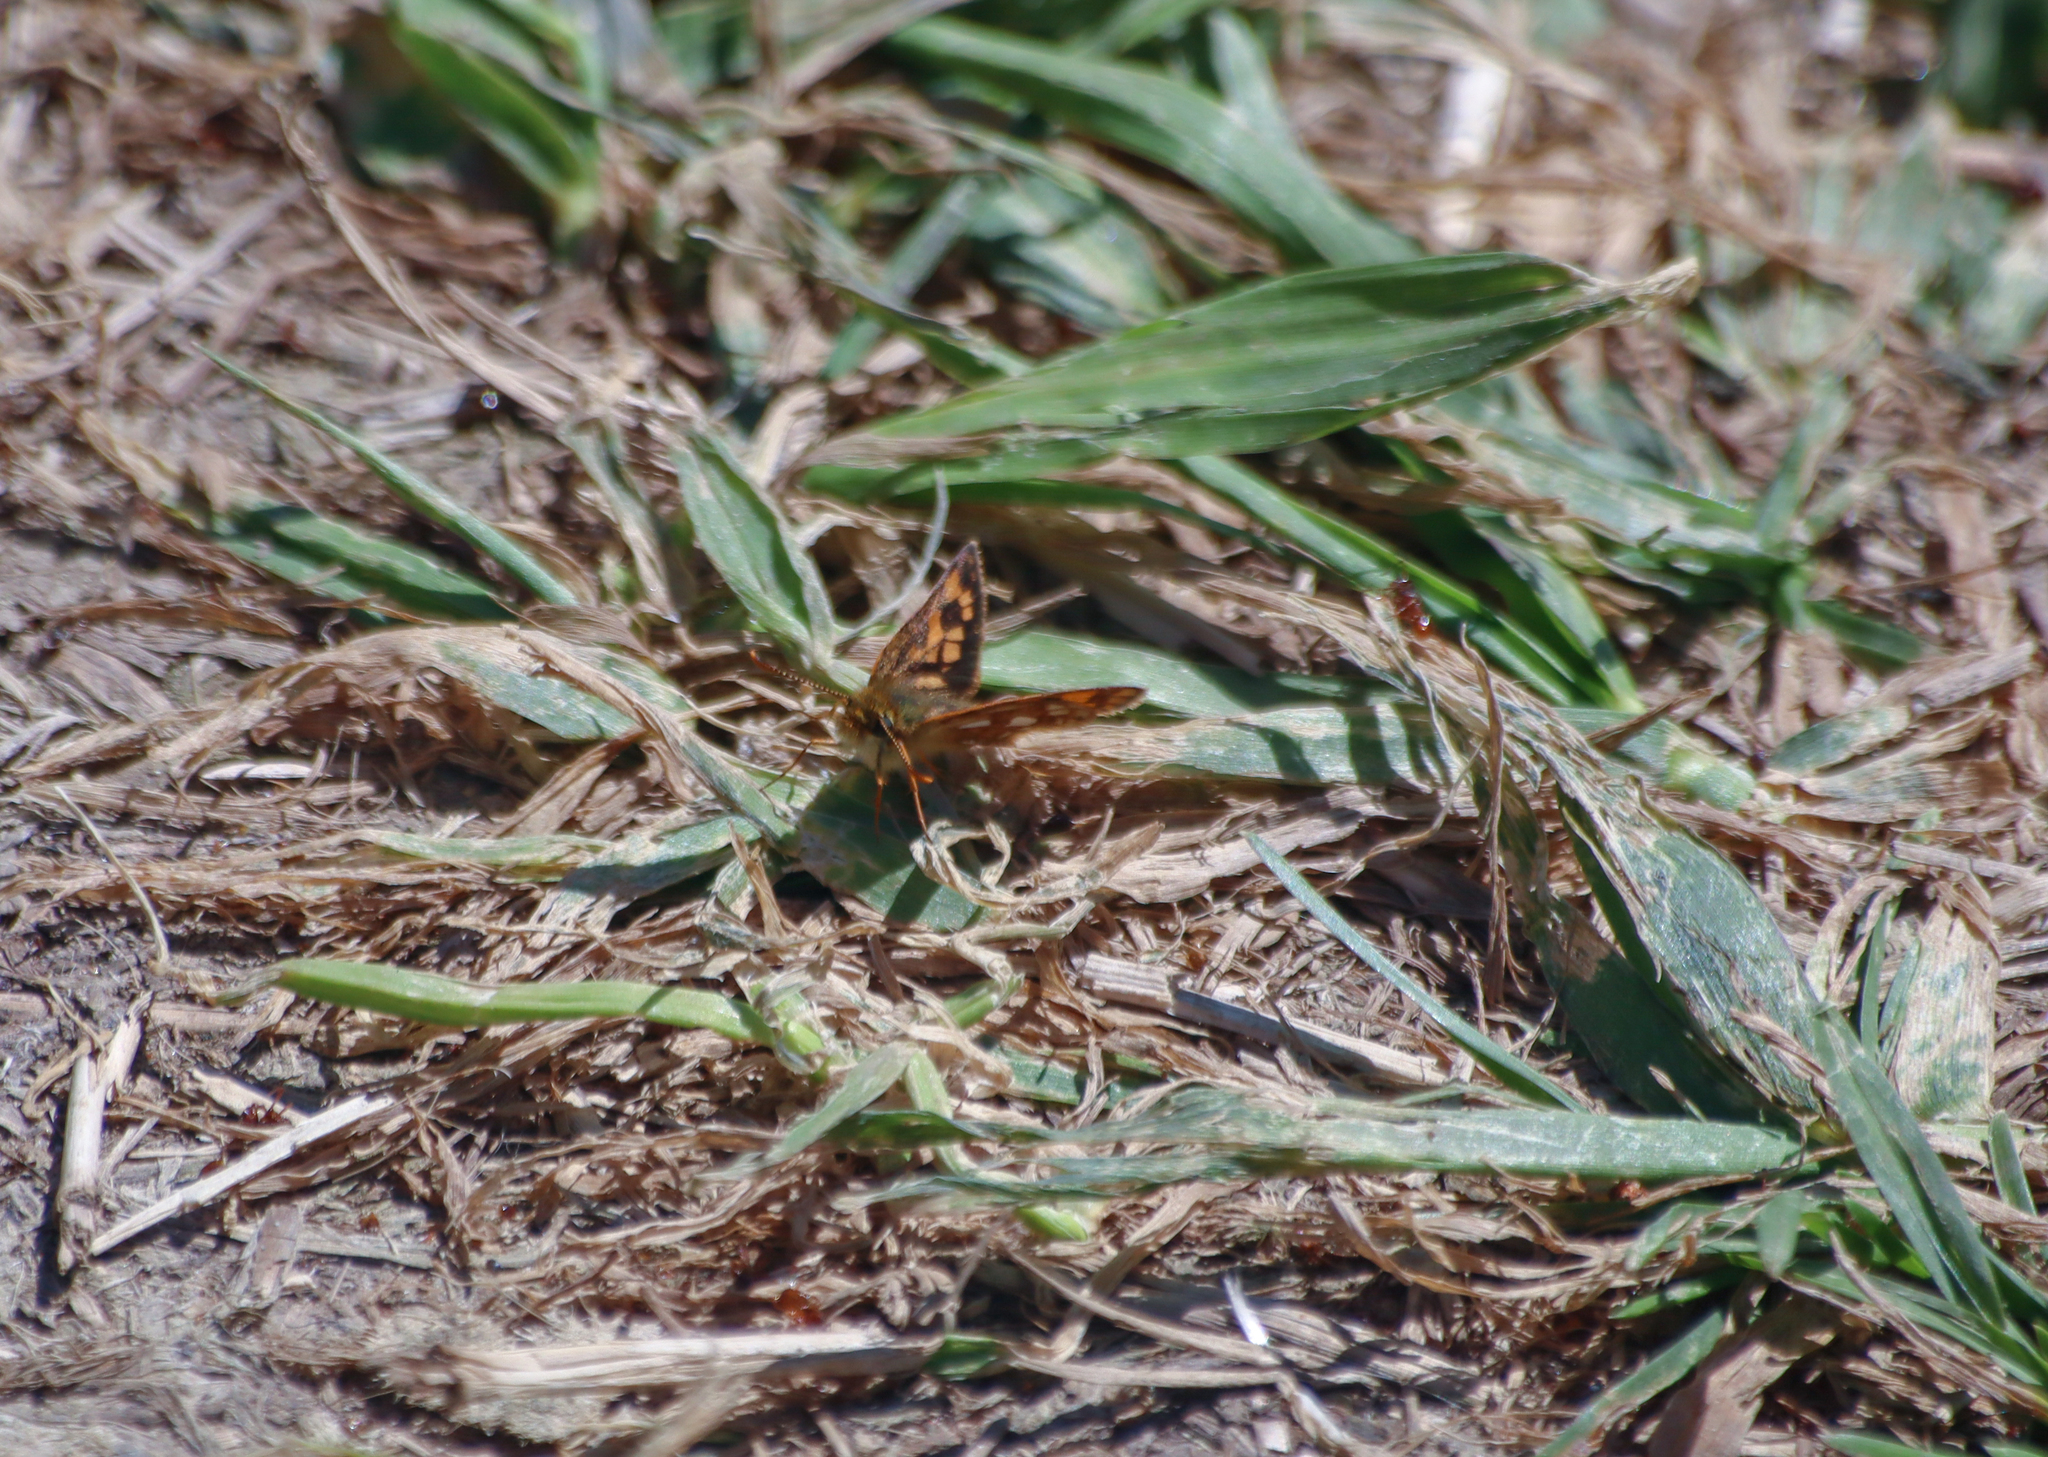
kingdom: Animalia
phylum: Arthropoda
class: Insecta
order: Lepidoptera
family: Hesperiidae
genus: Carterocephalus
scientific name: Carterocephalus mandan
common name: Arctic skipperling
